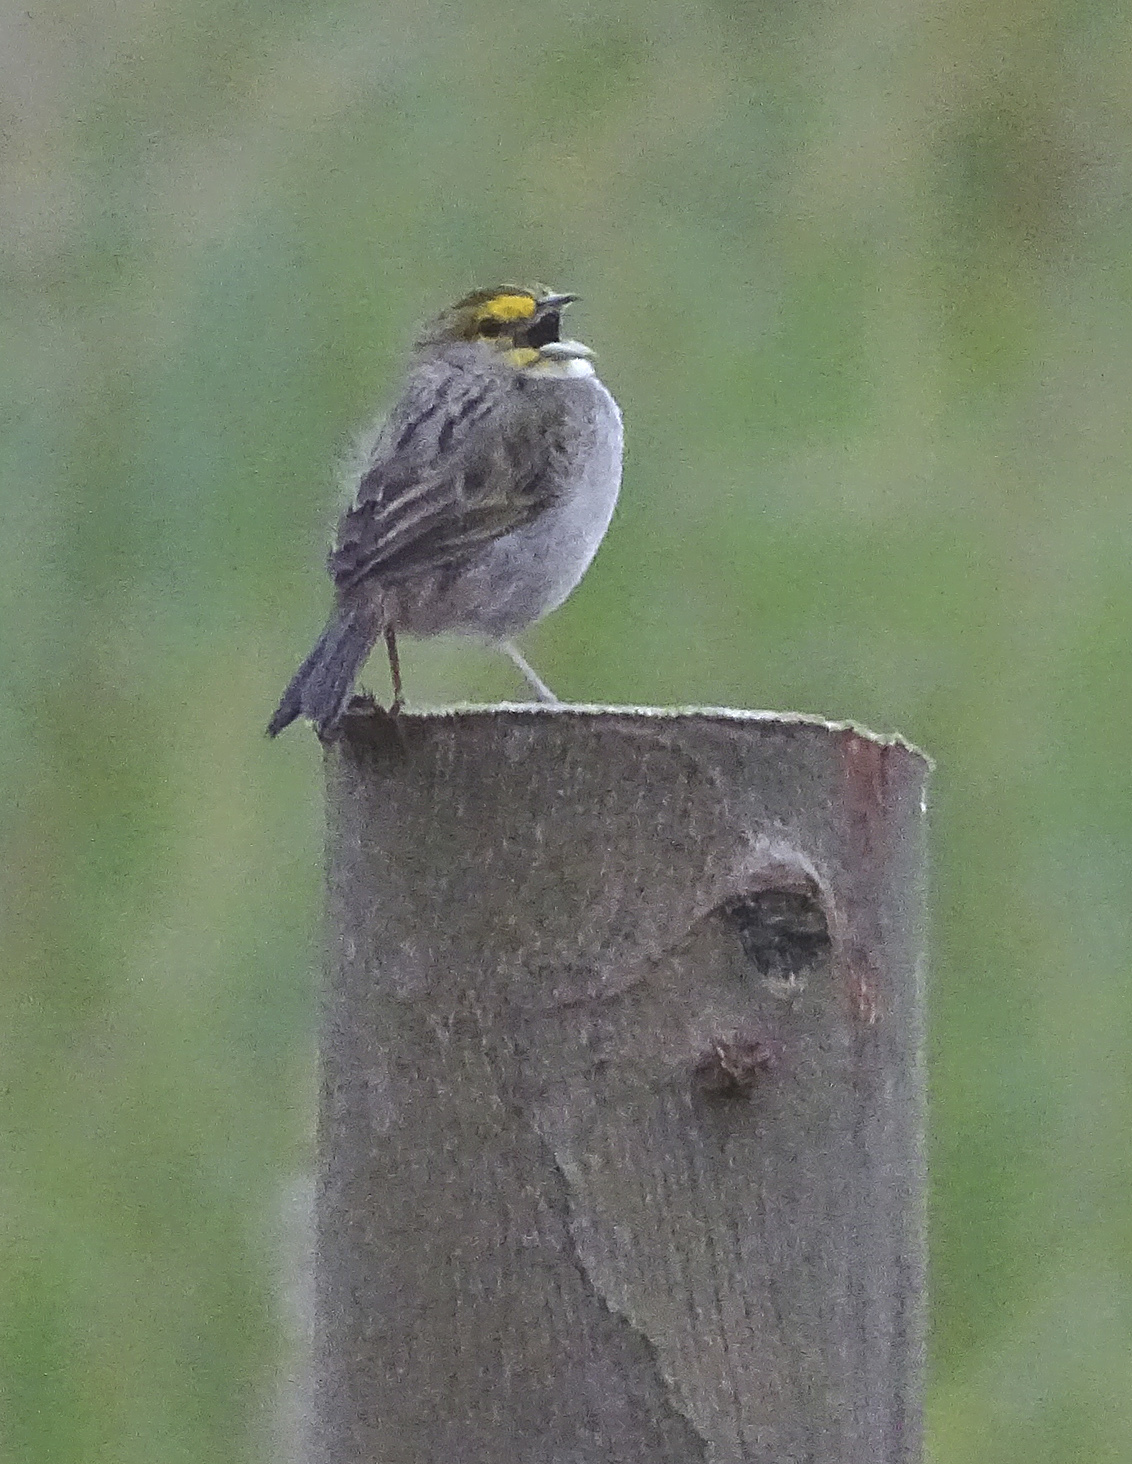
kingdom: Animalia
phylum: Chordata
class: Aves
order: Passeriformes
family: Passerellidae
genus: Ammodramus
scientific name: Ammodramus aurifrons
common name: Yellow-browed sparrow
